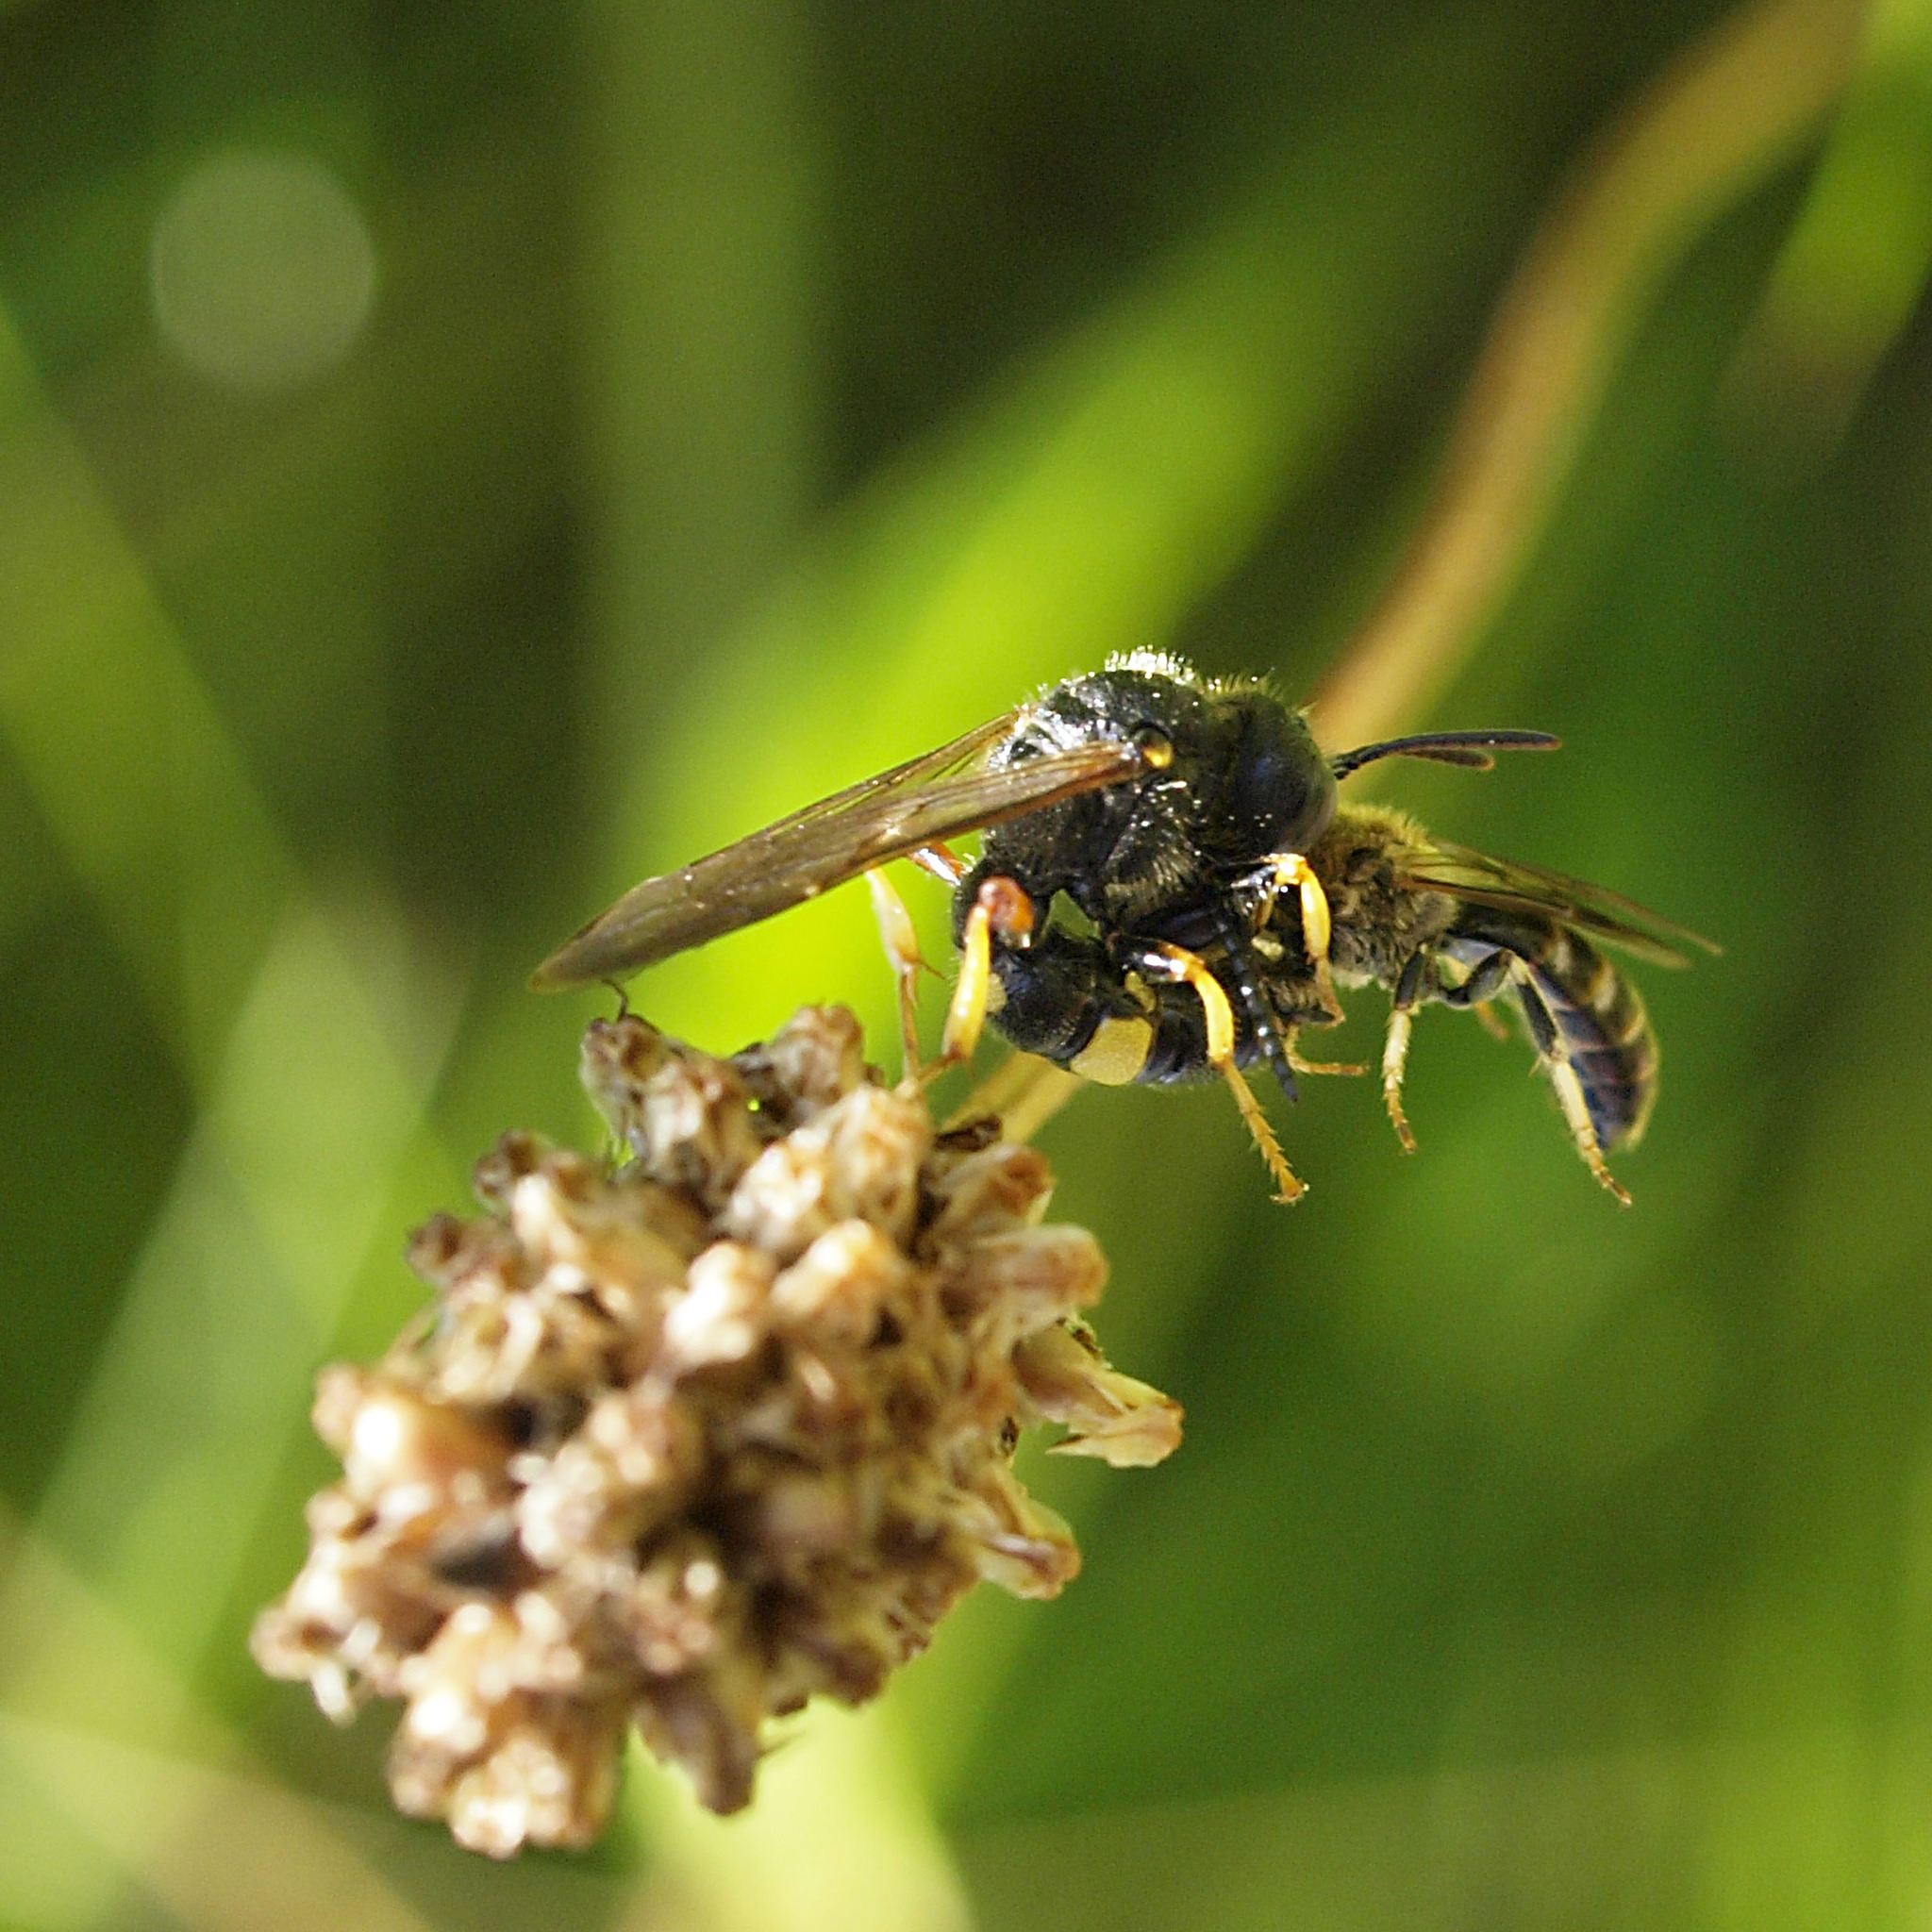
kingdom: Animalia
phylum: Arthropoda
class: Insecta
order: Hymenoptera
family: Crabronidae
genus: Cerceris
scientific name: Cerceris rybyensis
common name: Ornate tailed digger wasp
